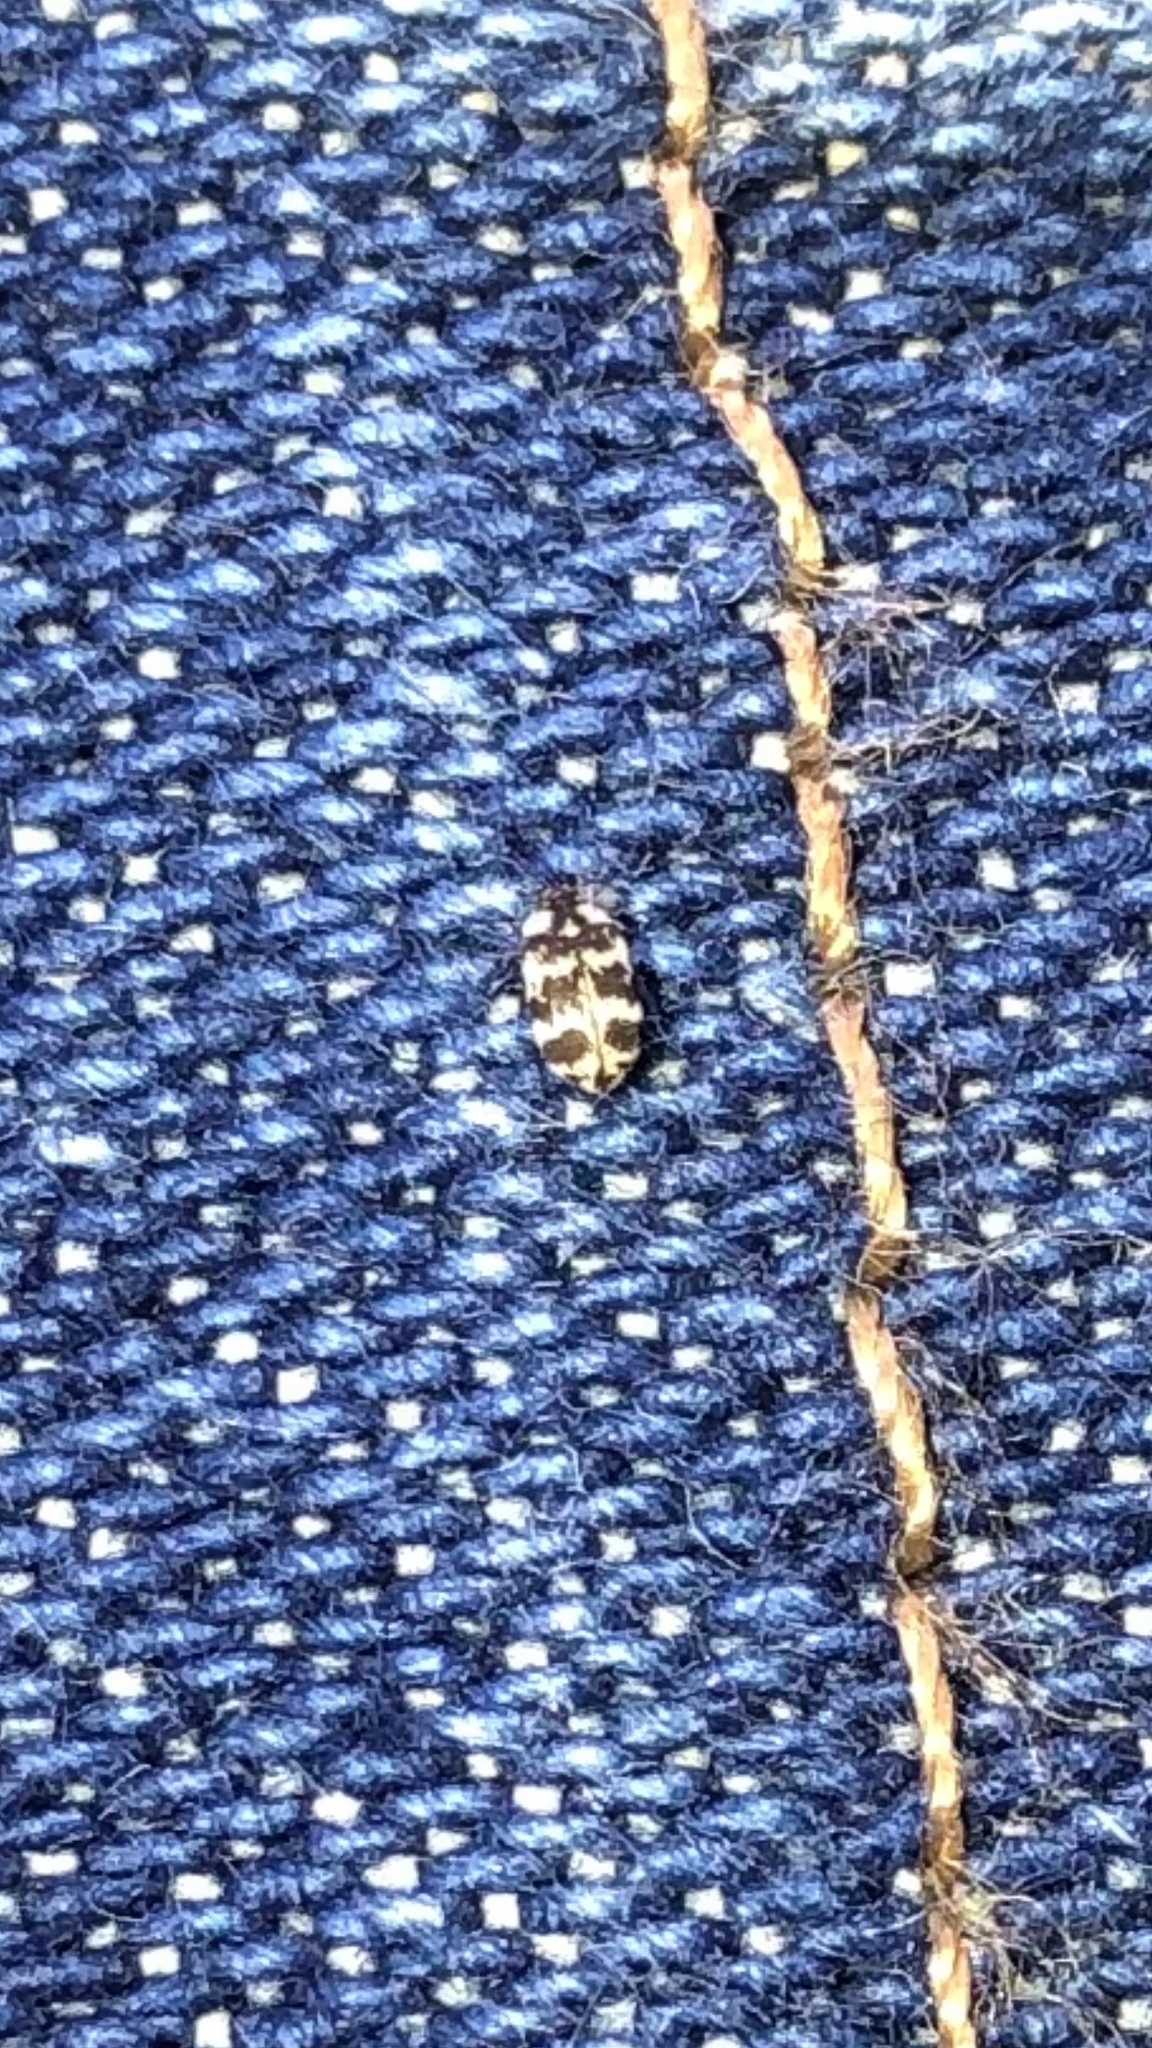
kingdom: Animalia
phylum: Arthropoda
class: Insecta
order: Coleoptera
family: Dermestidae
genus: Anthrenus
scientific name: Anthrenus coloratus
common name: Auger beetle
